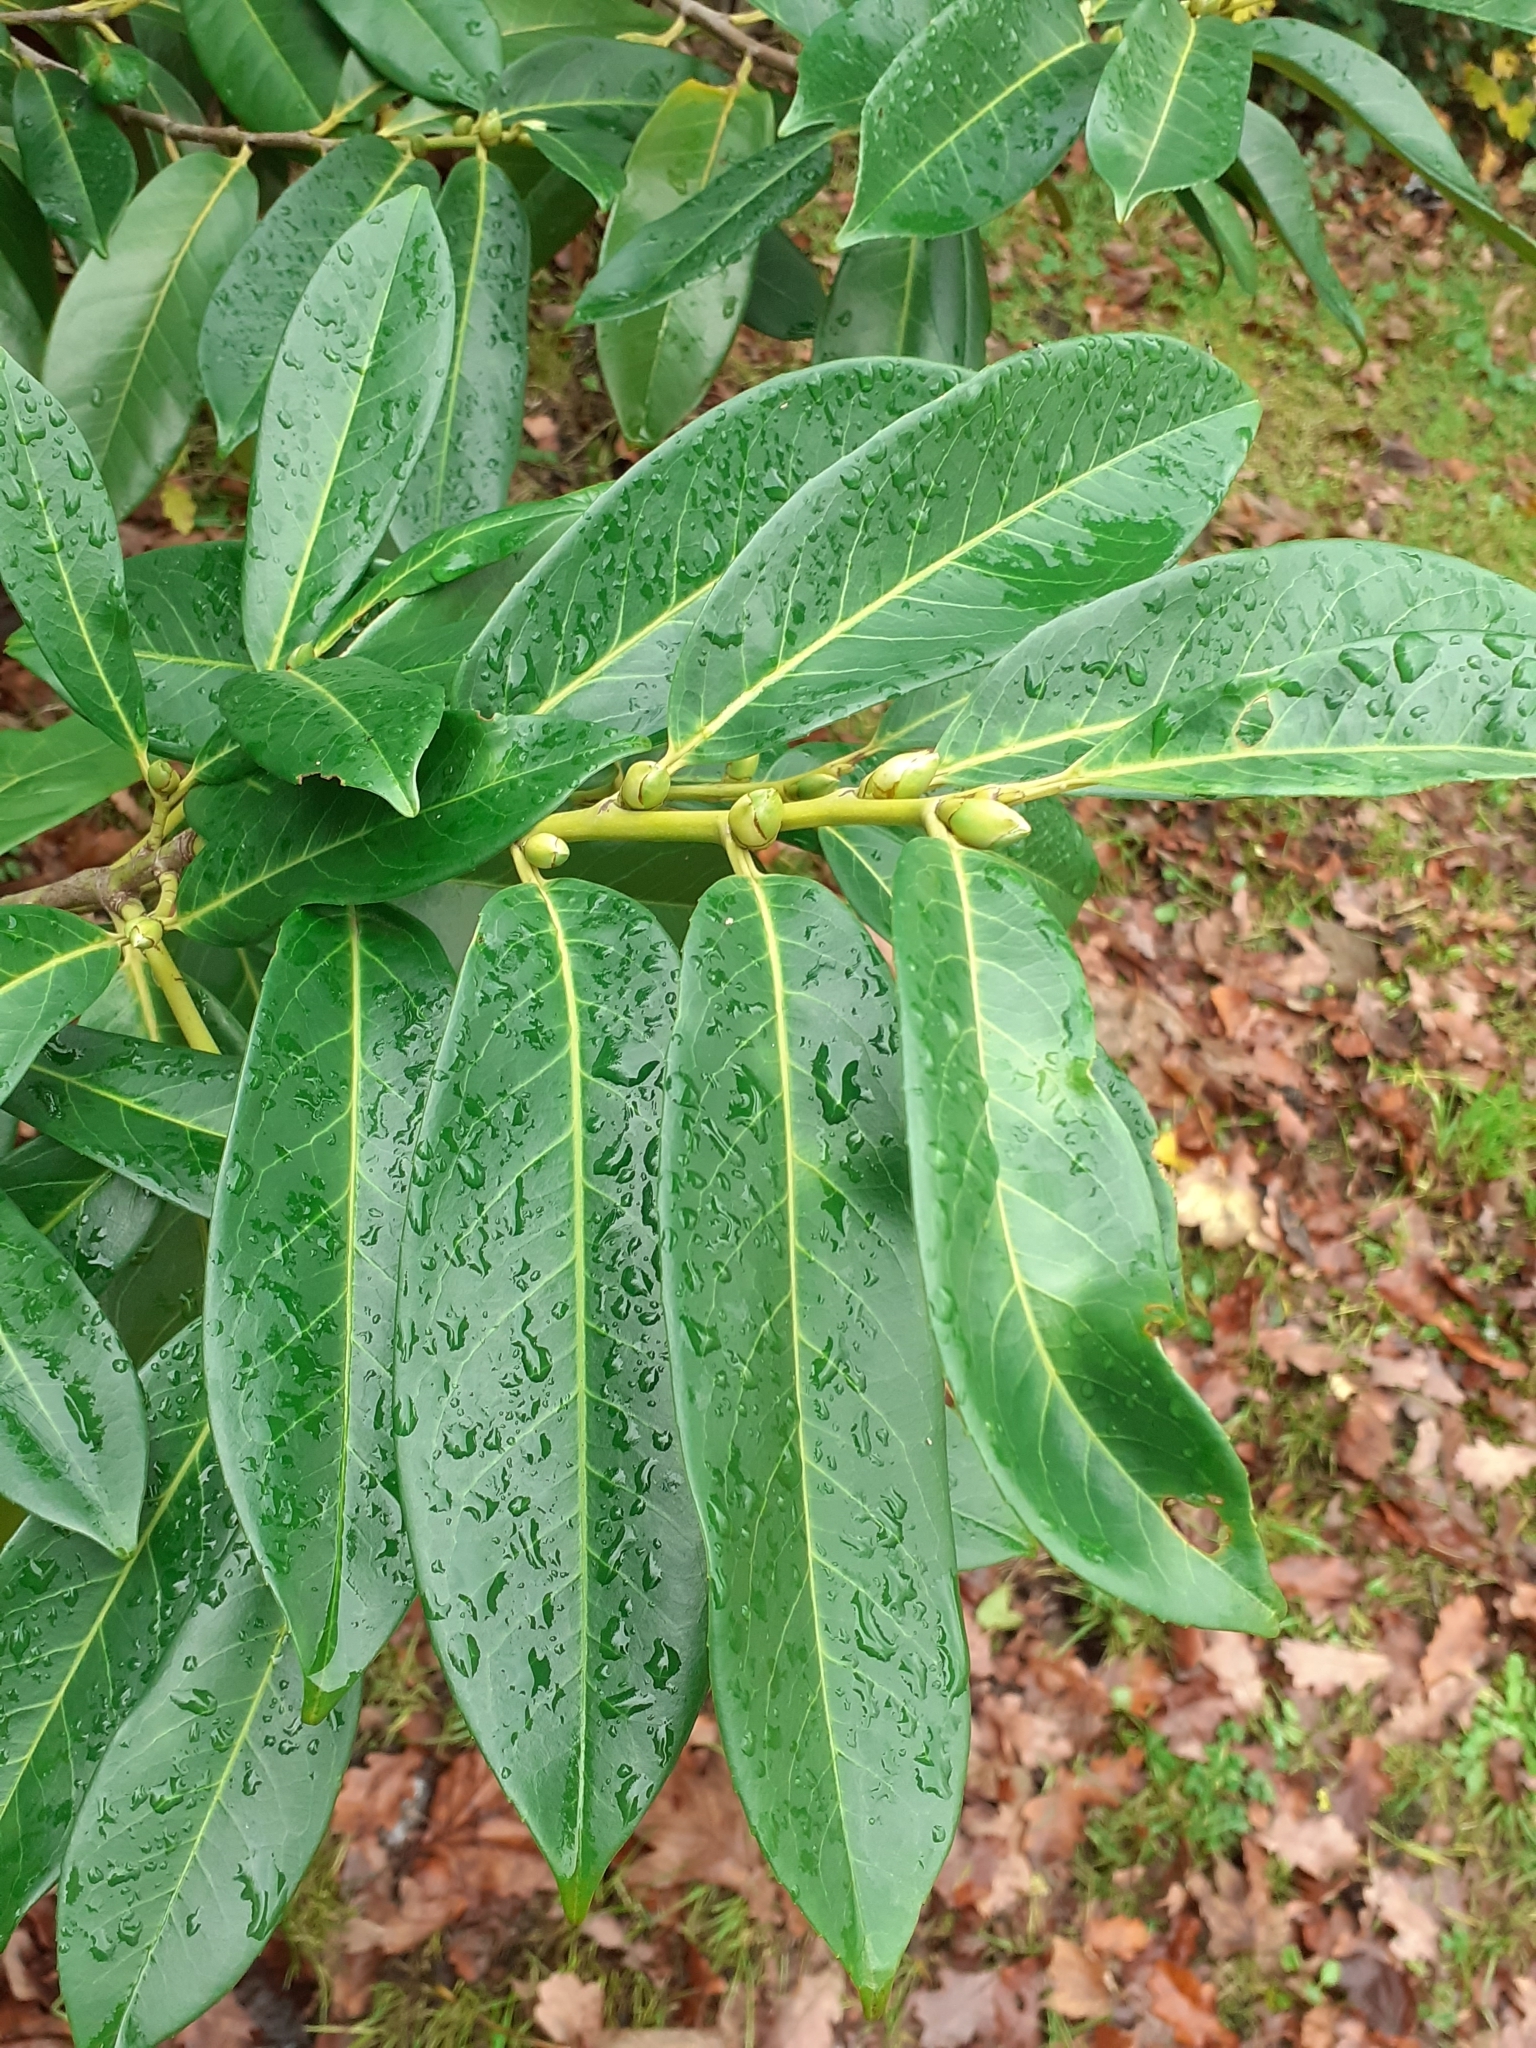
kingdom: Plantae
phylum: Tracheophyta
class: Magnoliopsida
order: Rosales
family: Rosaceae
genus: Prunus
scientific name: Prunus laurocerasus
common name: Cherry laurel
